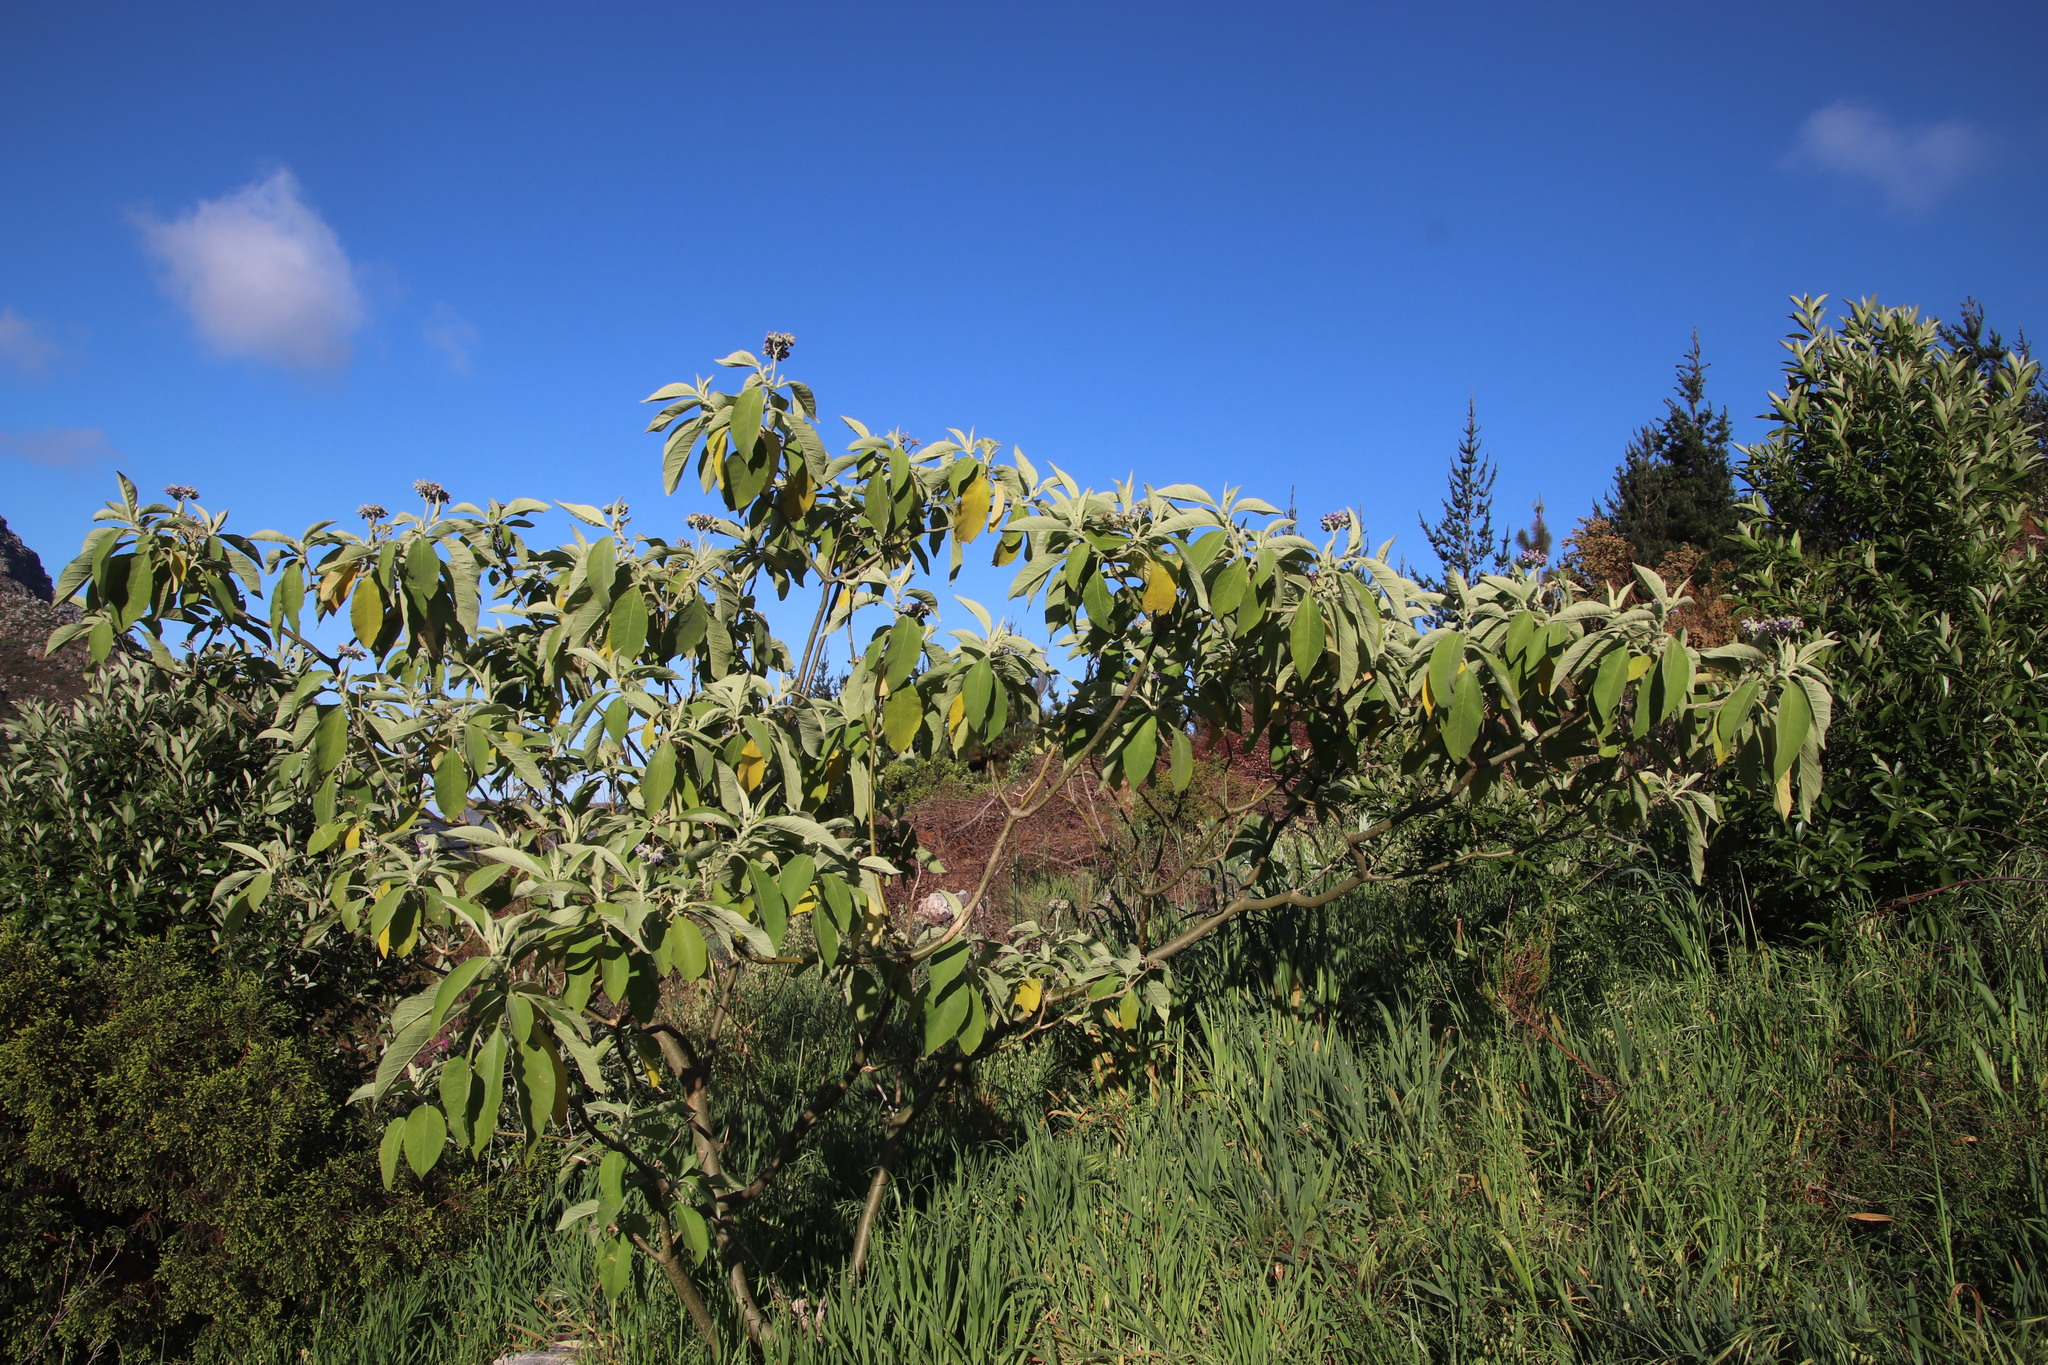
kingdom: Plantae
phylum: Tracheophyta
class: Magnoliopsida
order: Solanales
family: Solanaceae
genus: Solanum
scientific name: Solanum mauritianum
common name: Earleaf nightshade
